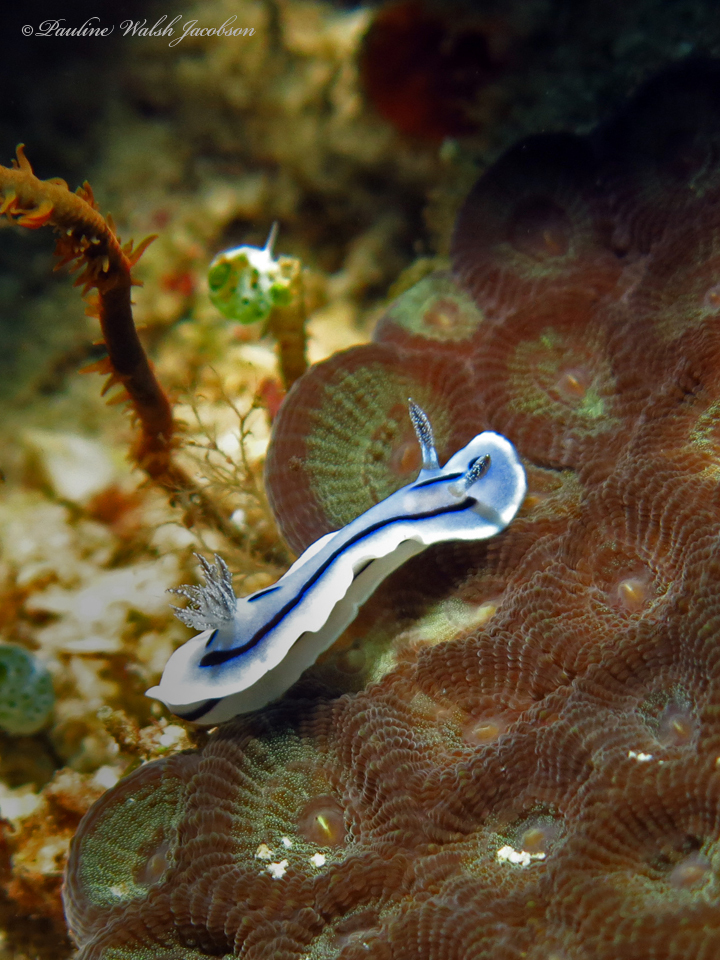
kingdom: Animalia
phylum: Mollusca
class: Gastropoda
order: Nudibranchia
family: Chromodorididae
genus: Chromodoris
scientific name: Chromodoris willani
